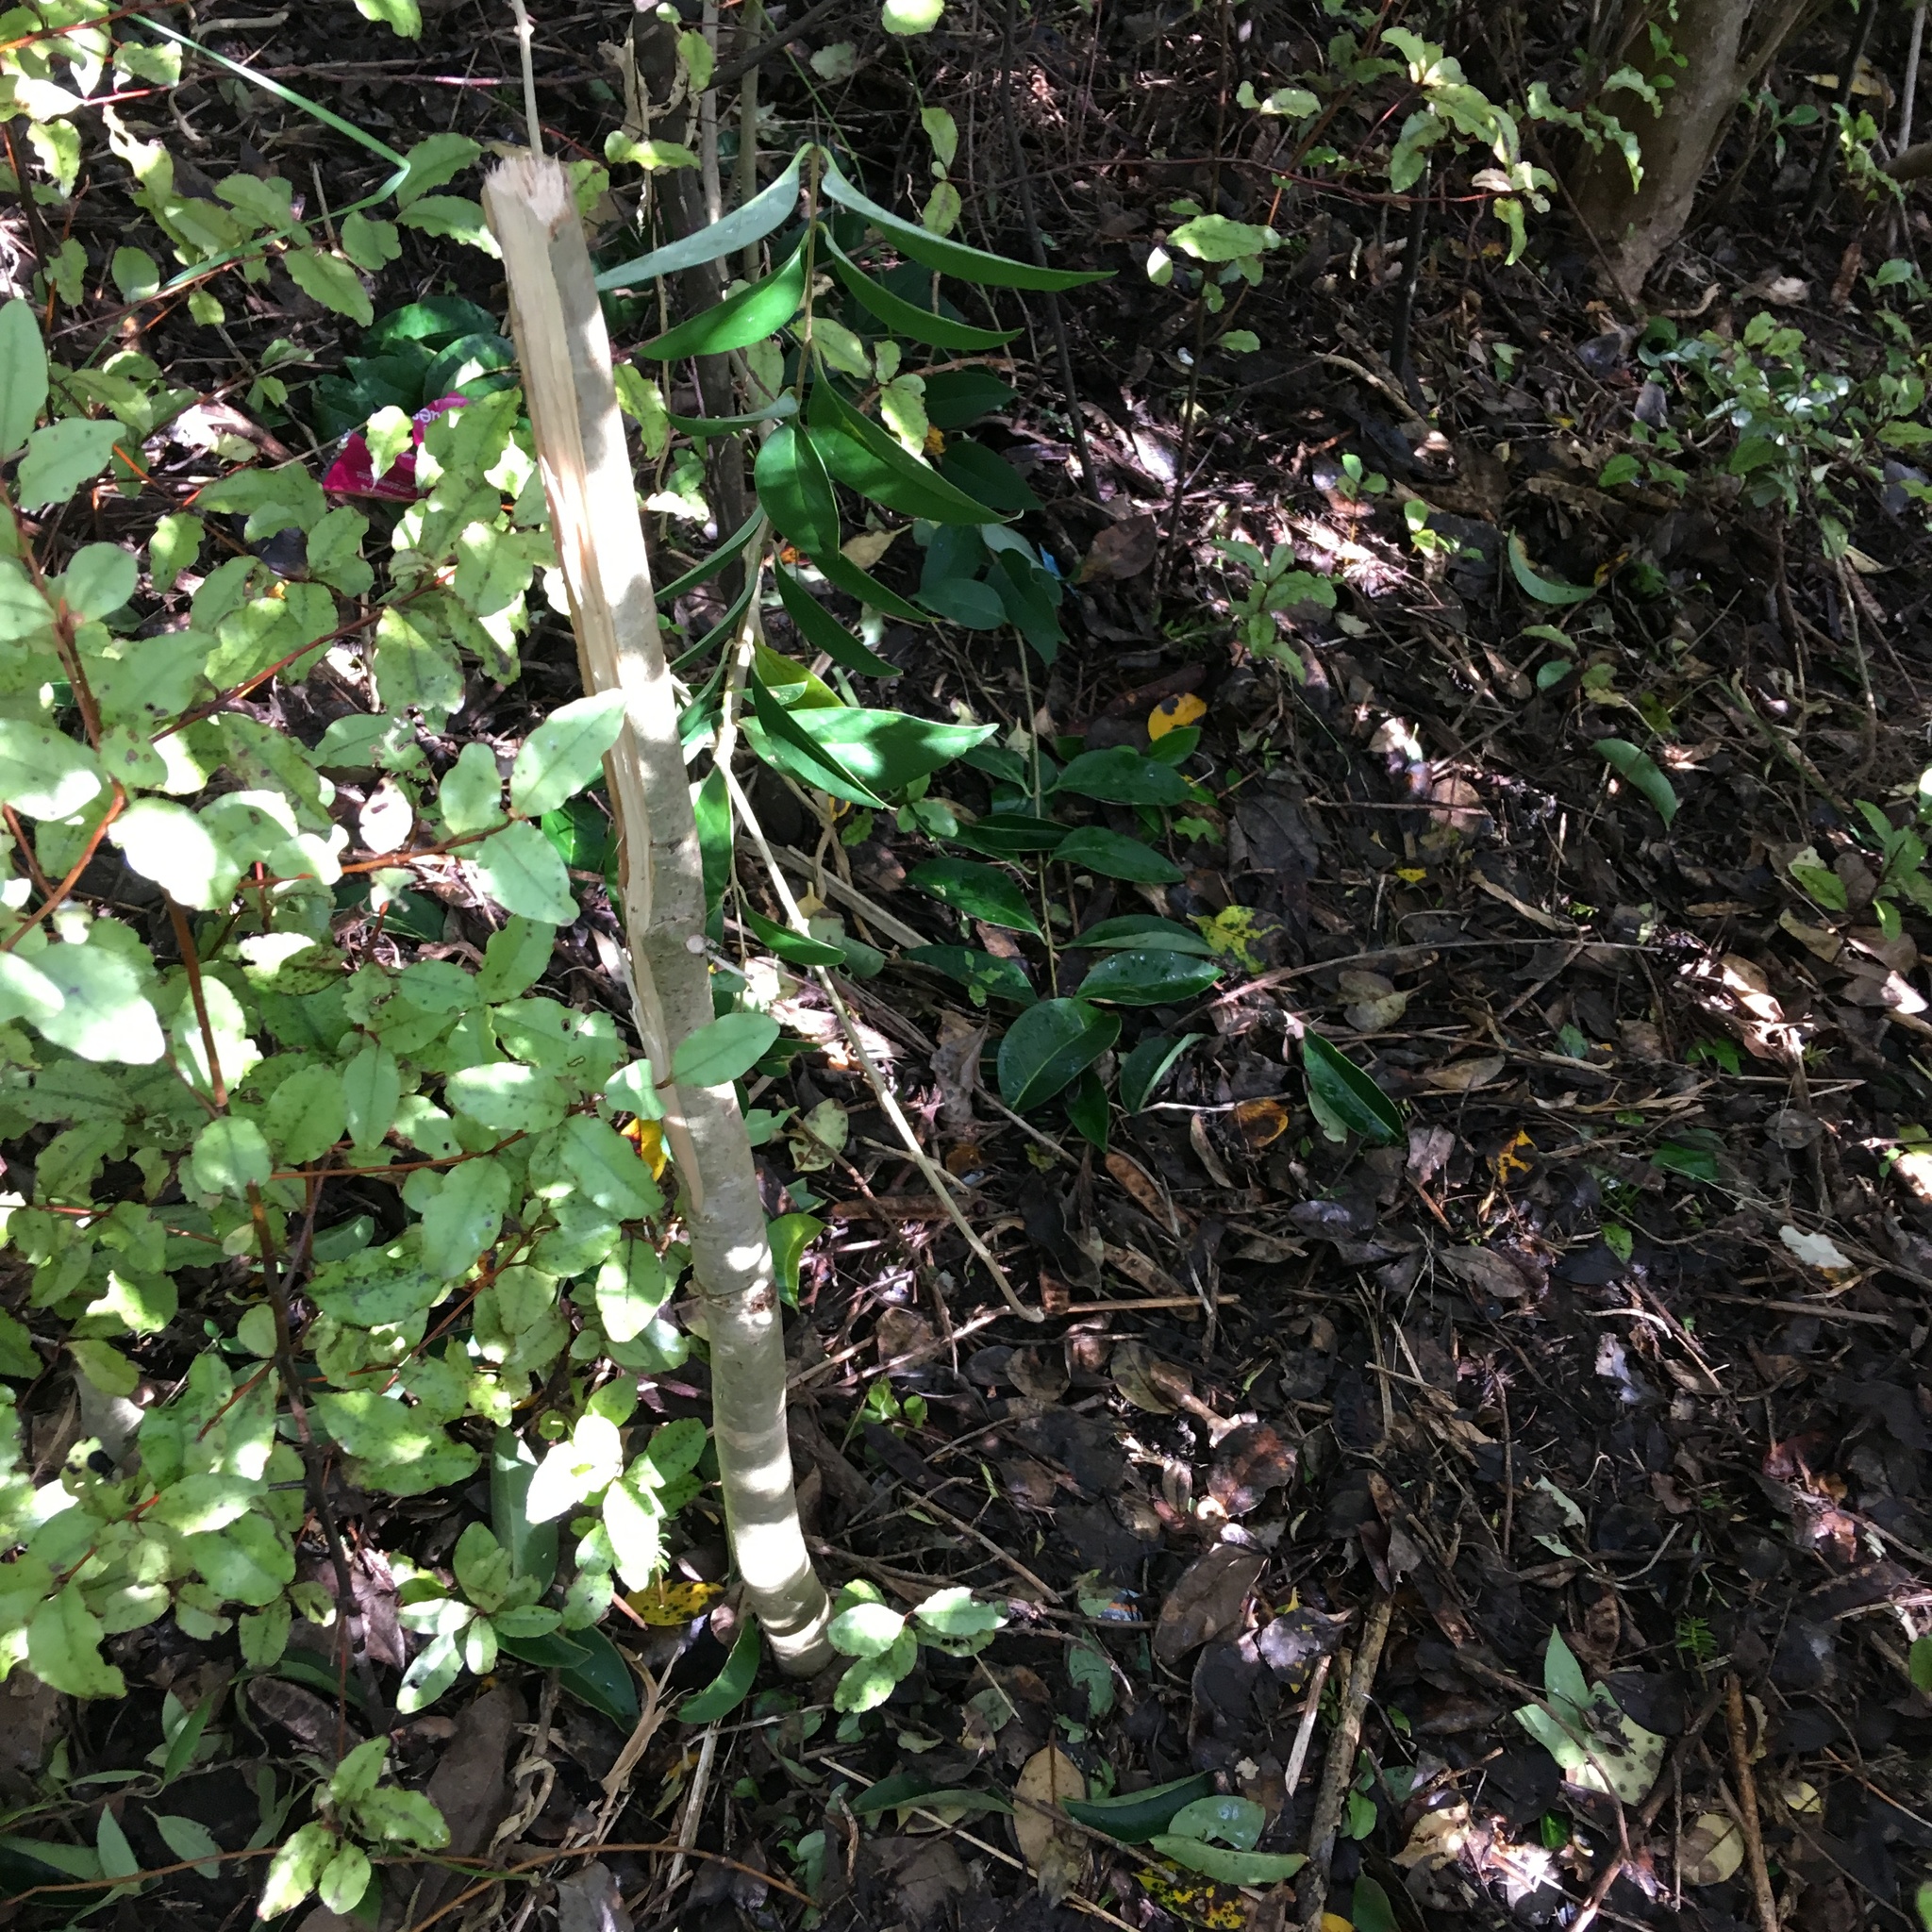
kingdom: Plantae
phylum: Tracheophyta
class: Magnoliopsida
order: Lamiales
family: Oleaceae
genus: Ligustrum
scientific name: Ligustrum lucidum
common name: Glossy privet
